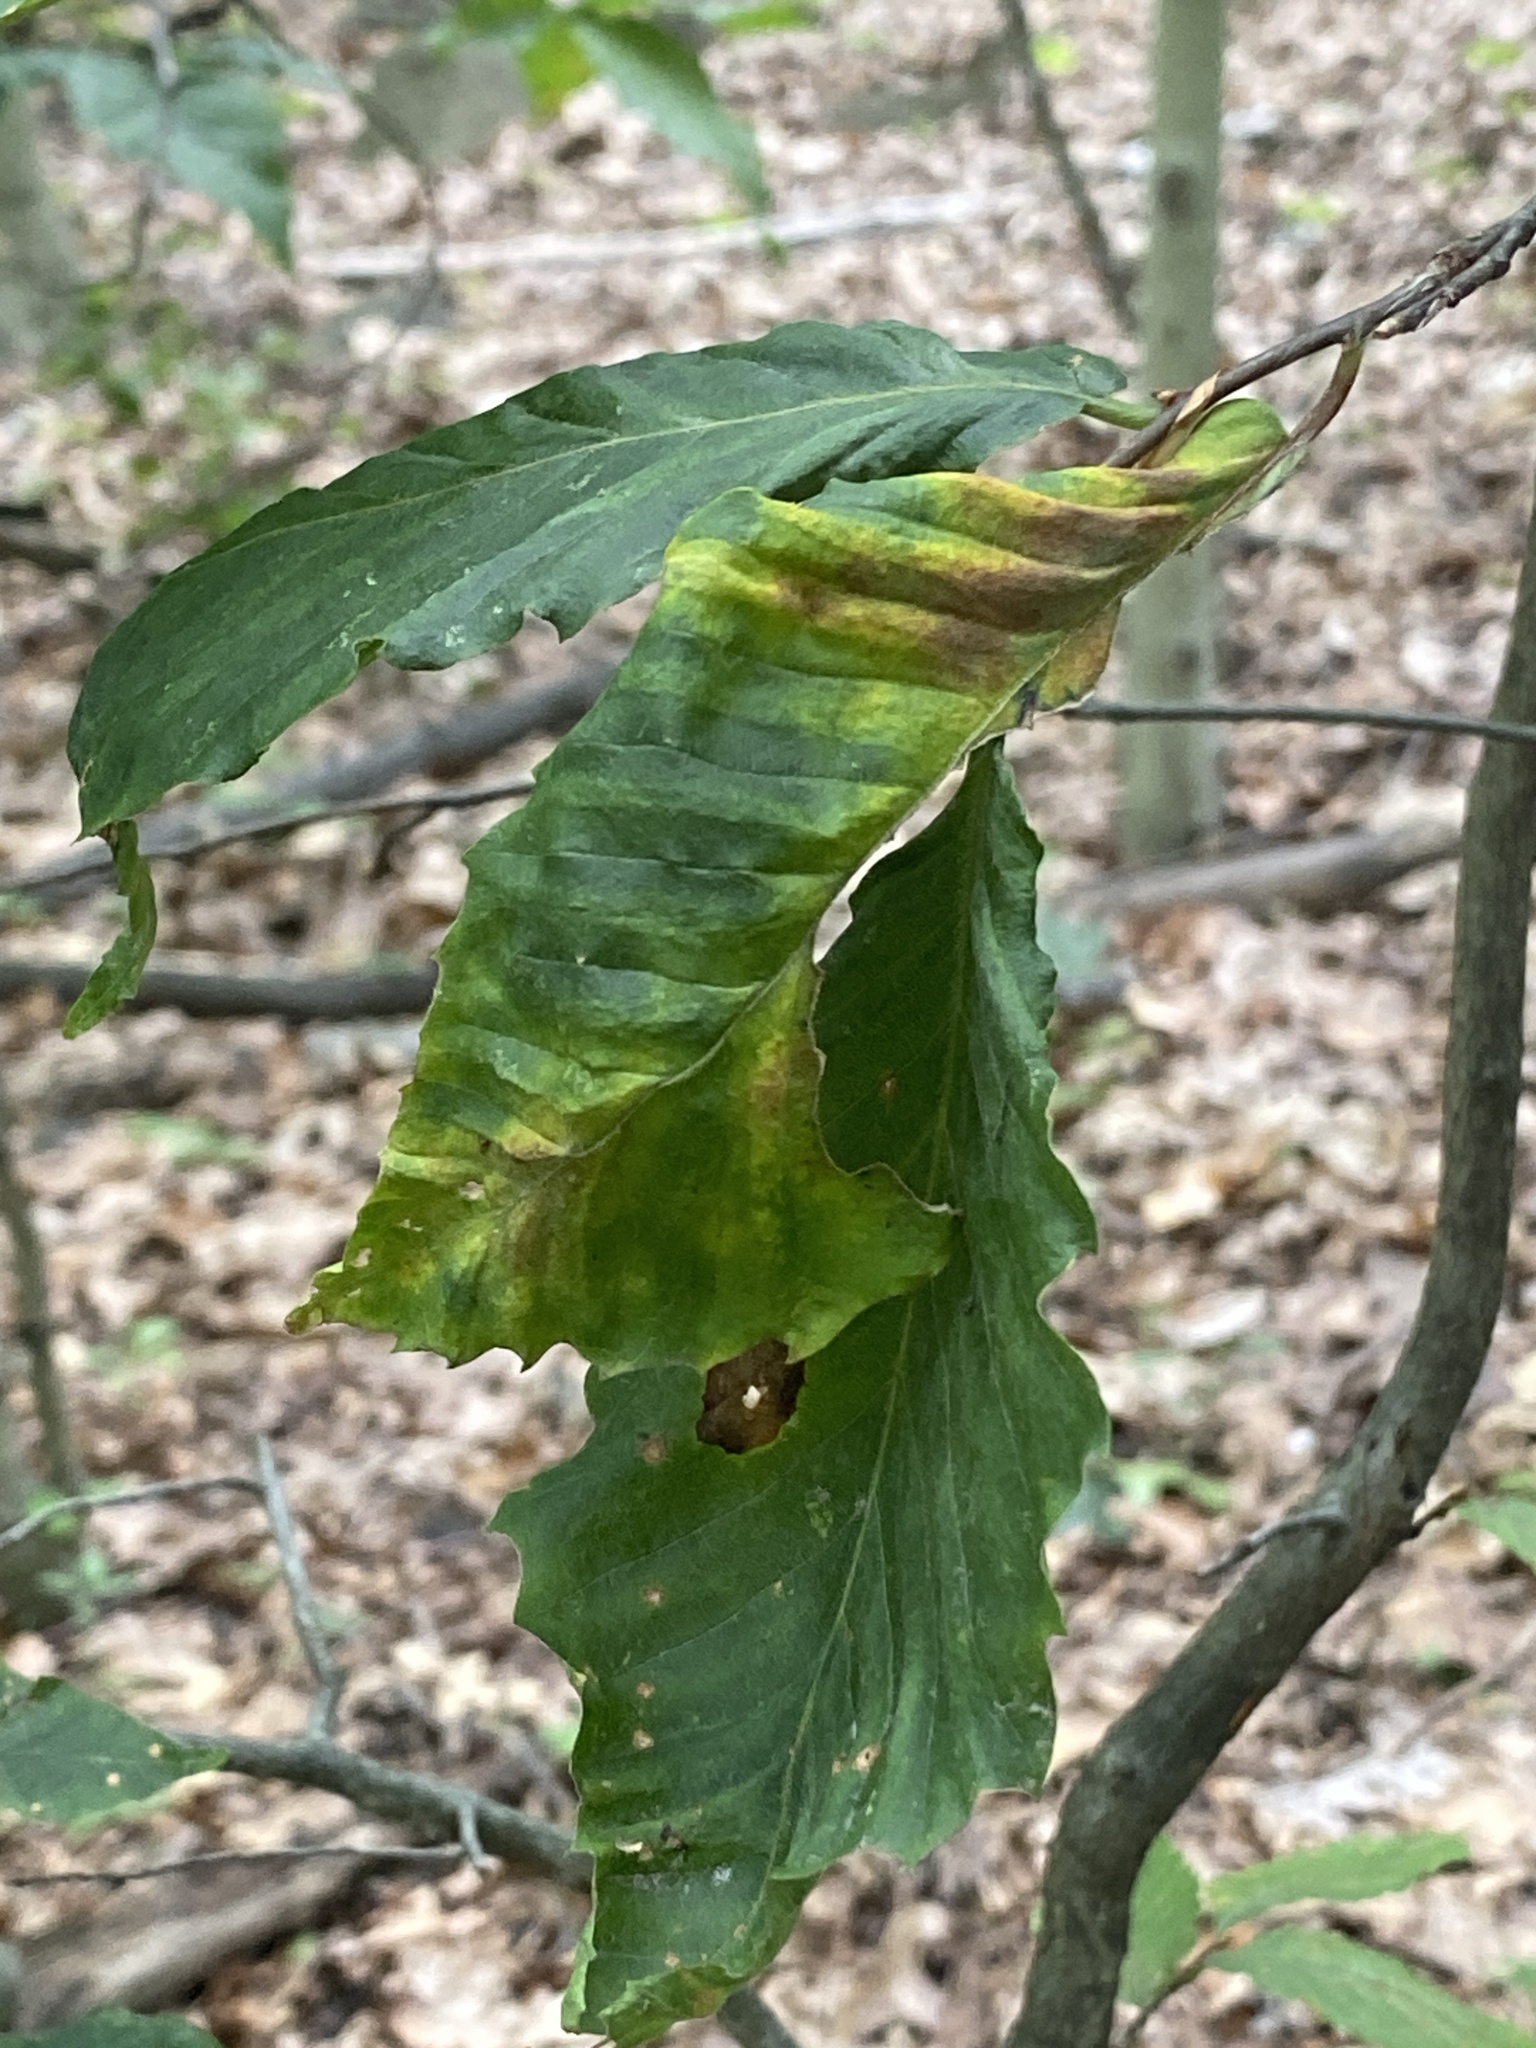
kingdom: Animalia
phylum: Nematoda
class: Chromadorea
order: Rhabditida
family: Anguinidae
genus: Litylenchus
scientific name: Litylenchus crenatae
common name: Beech leaf disease
